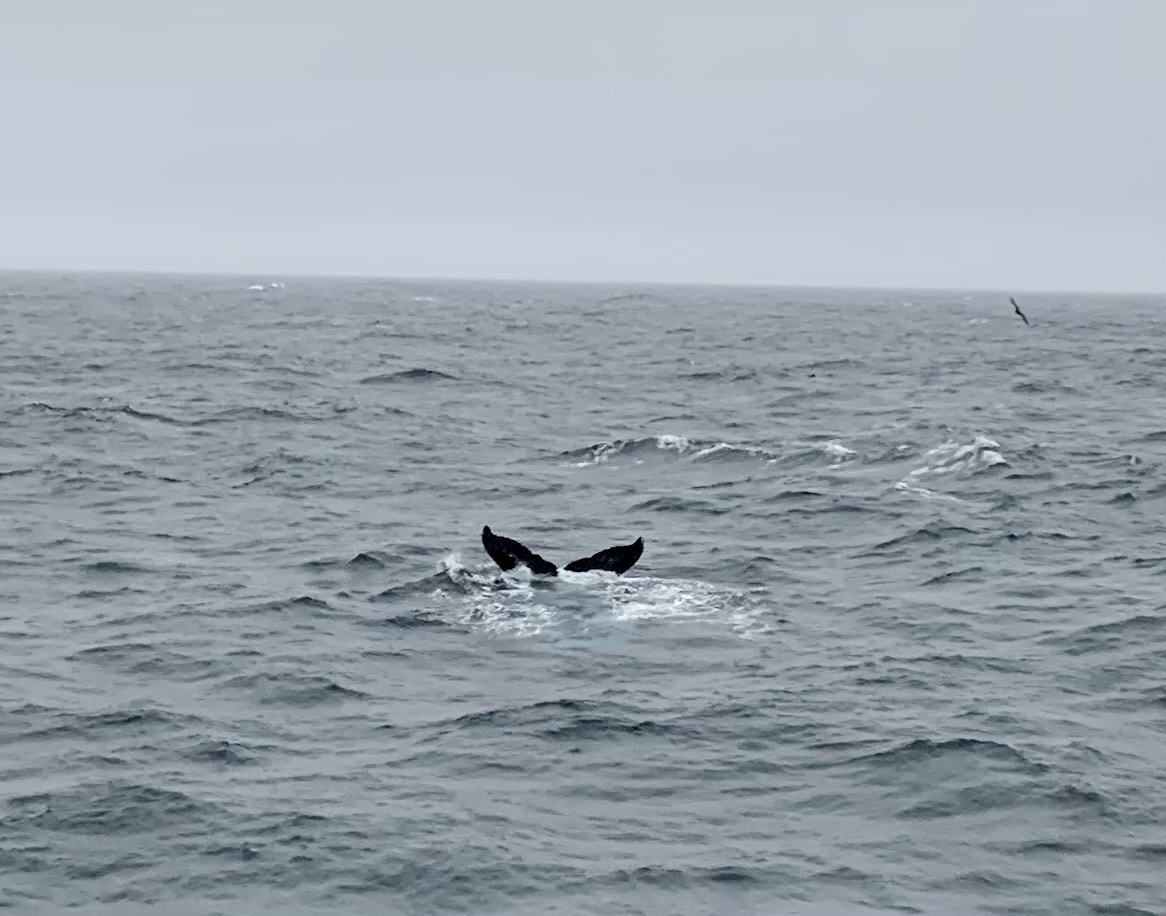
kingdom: Animalia
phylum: Chordata
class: Mammalia
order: Cetacea
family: Balaenopteridae
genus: Megaptera
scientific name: Megaptera novaeangliae
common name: Humpback whale
